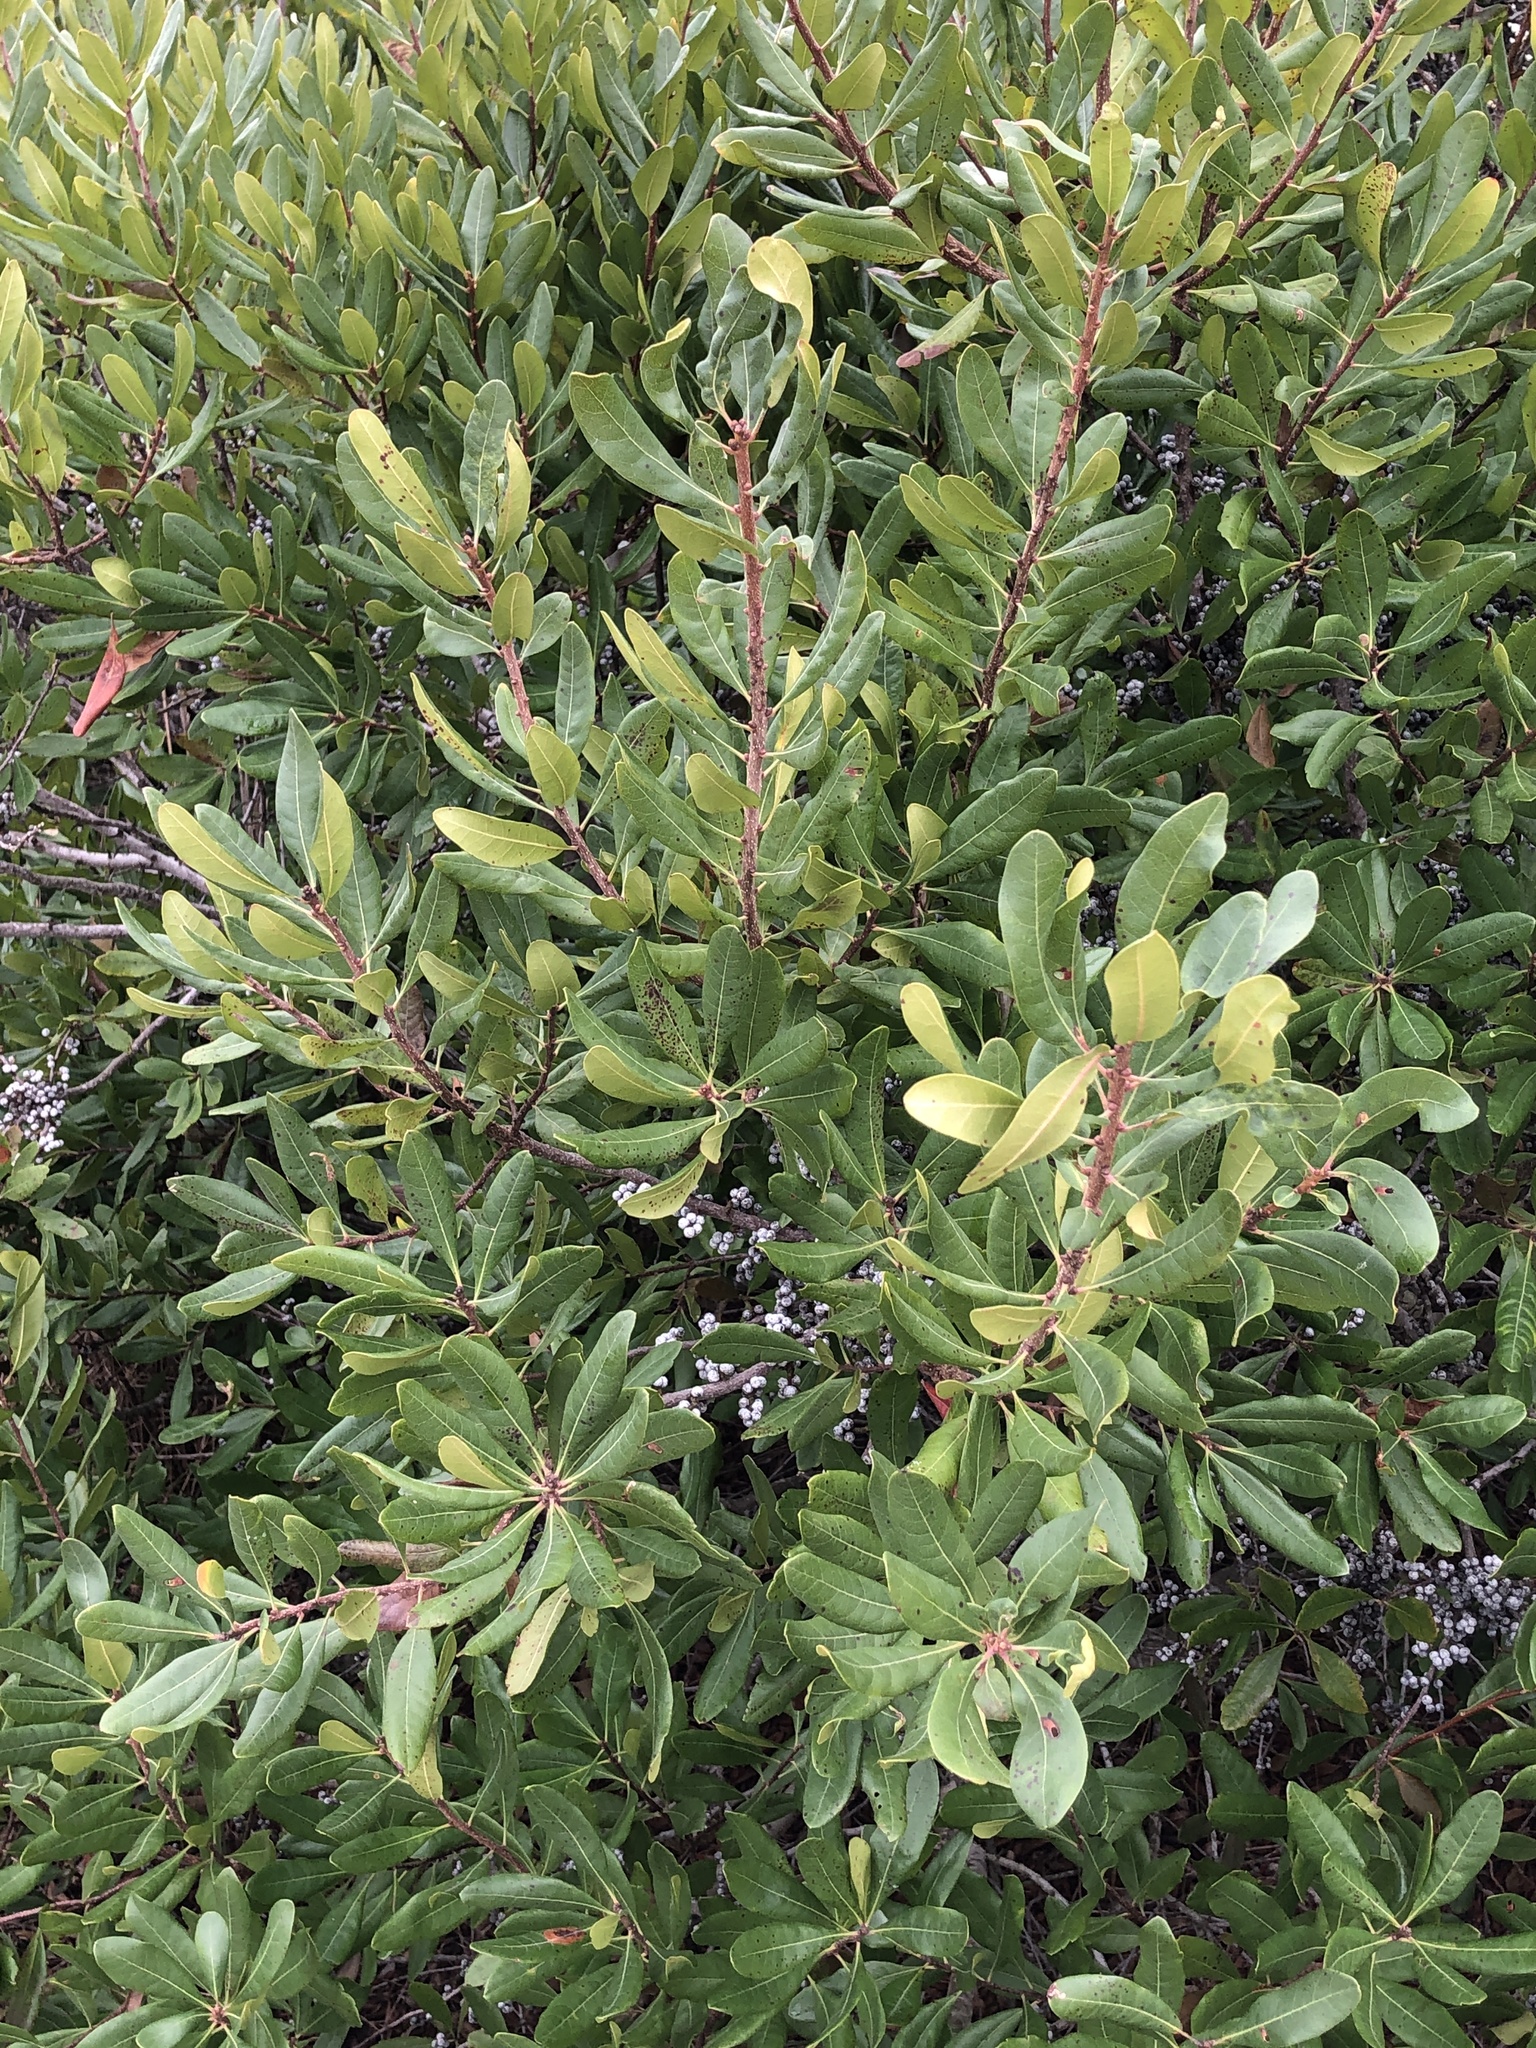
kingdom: Plantae
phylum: Tracheophyta
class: Magnoliopsida
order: Fagales
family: Myricaceae
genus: Morella
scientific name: Morella pensylvanica
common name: Northern bayberry
